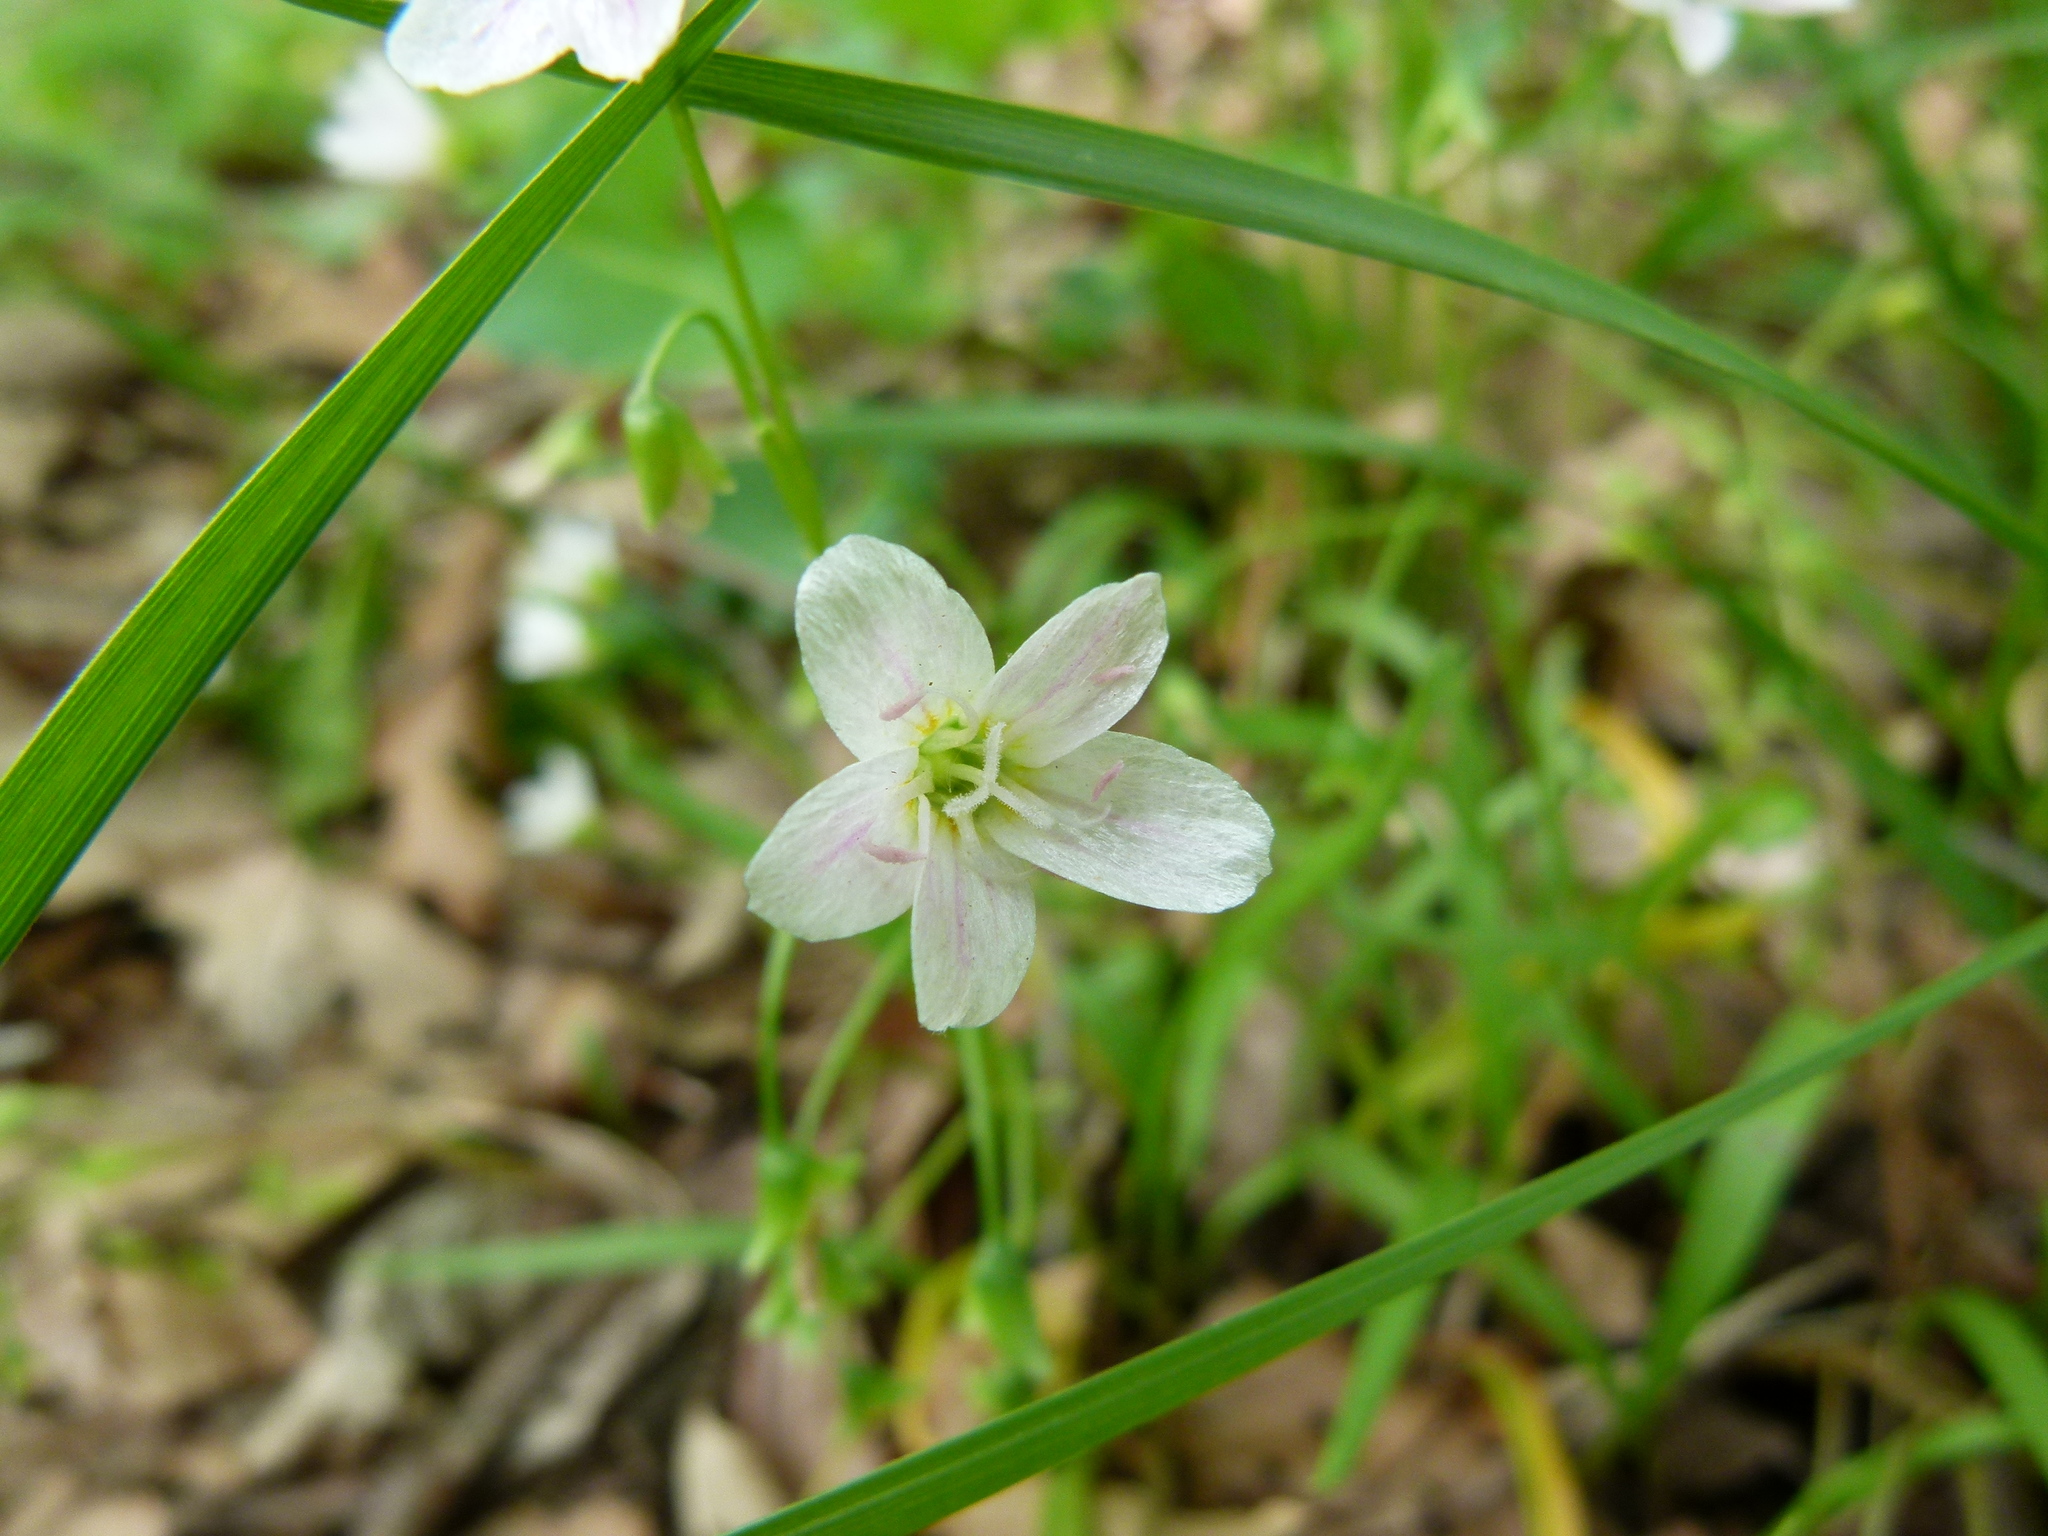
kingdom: Plantae
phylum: Tracheophyta
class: Magnoliopsida
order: Caryophyllales
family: Montiaceae
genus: Claytonia
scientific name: Claytonia virginica
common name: Virginia springbeauty
